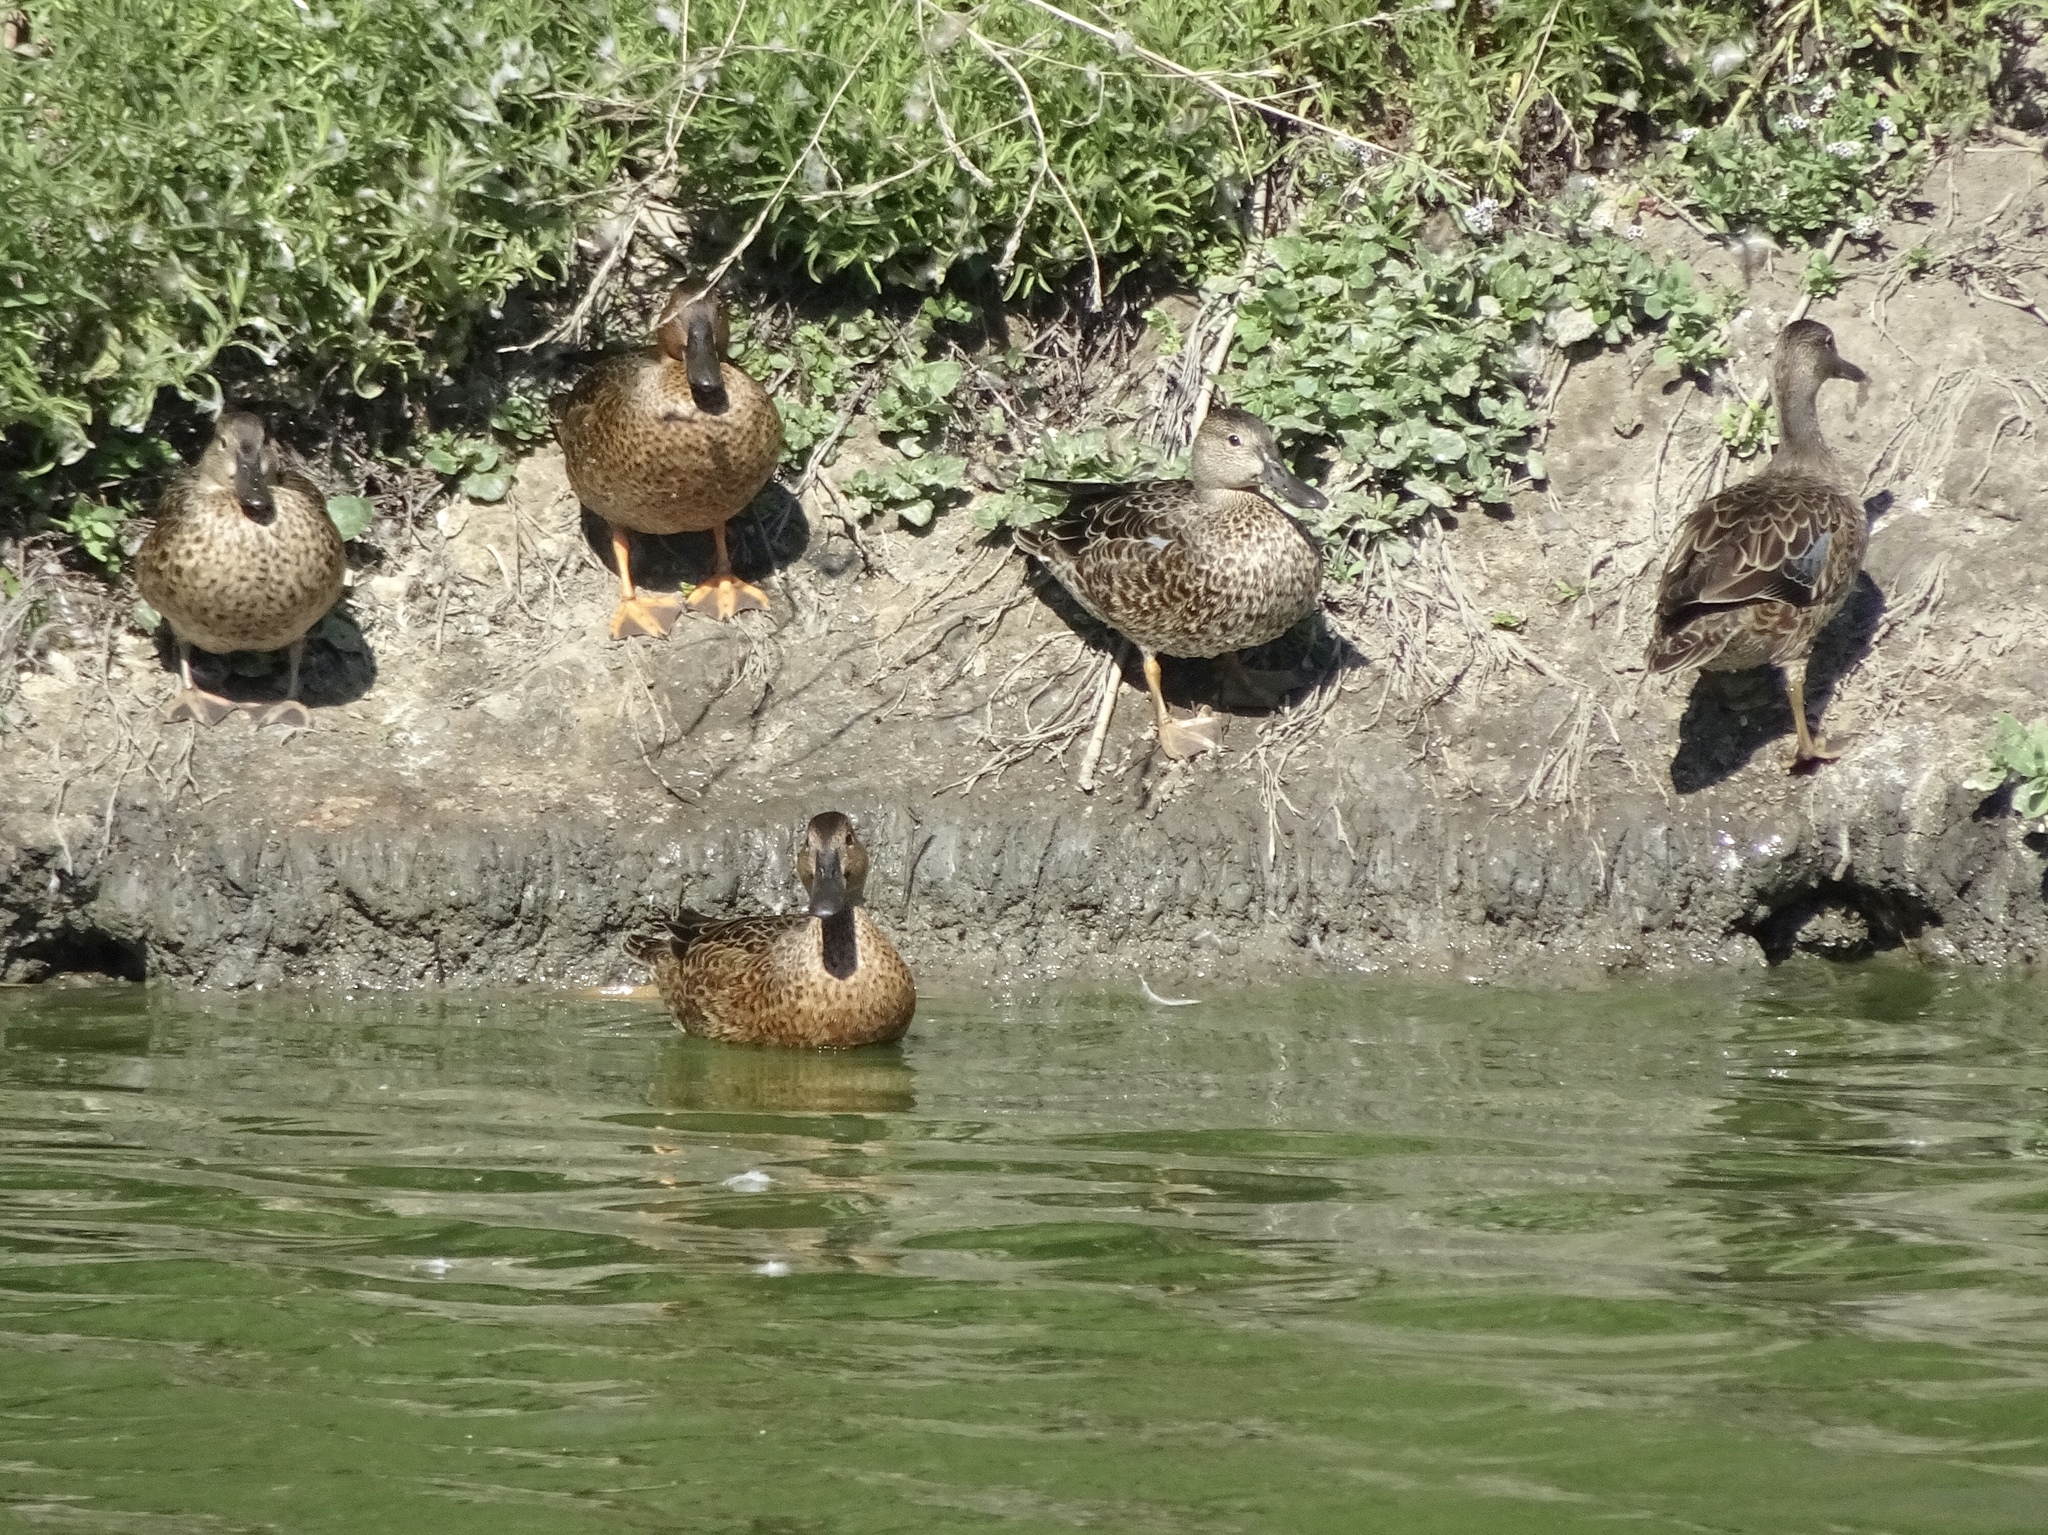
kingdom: Animalia
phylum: Chordata
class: Aves
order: Anseriformes
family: Anatidae
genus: Spatula
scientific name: Spatula cyanoptera
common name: Cinnamon teal
